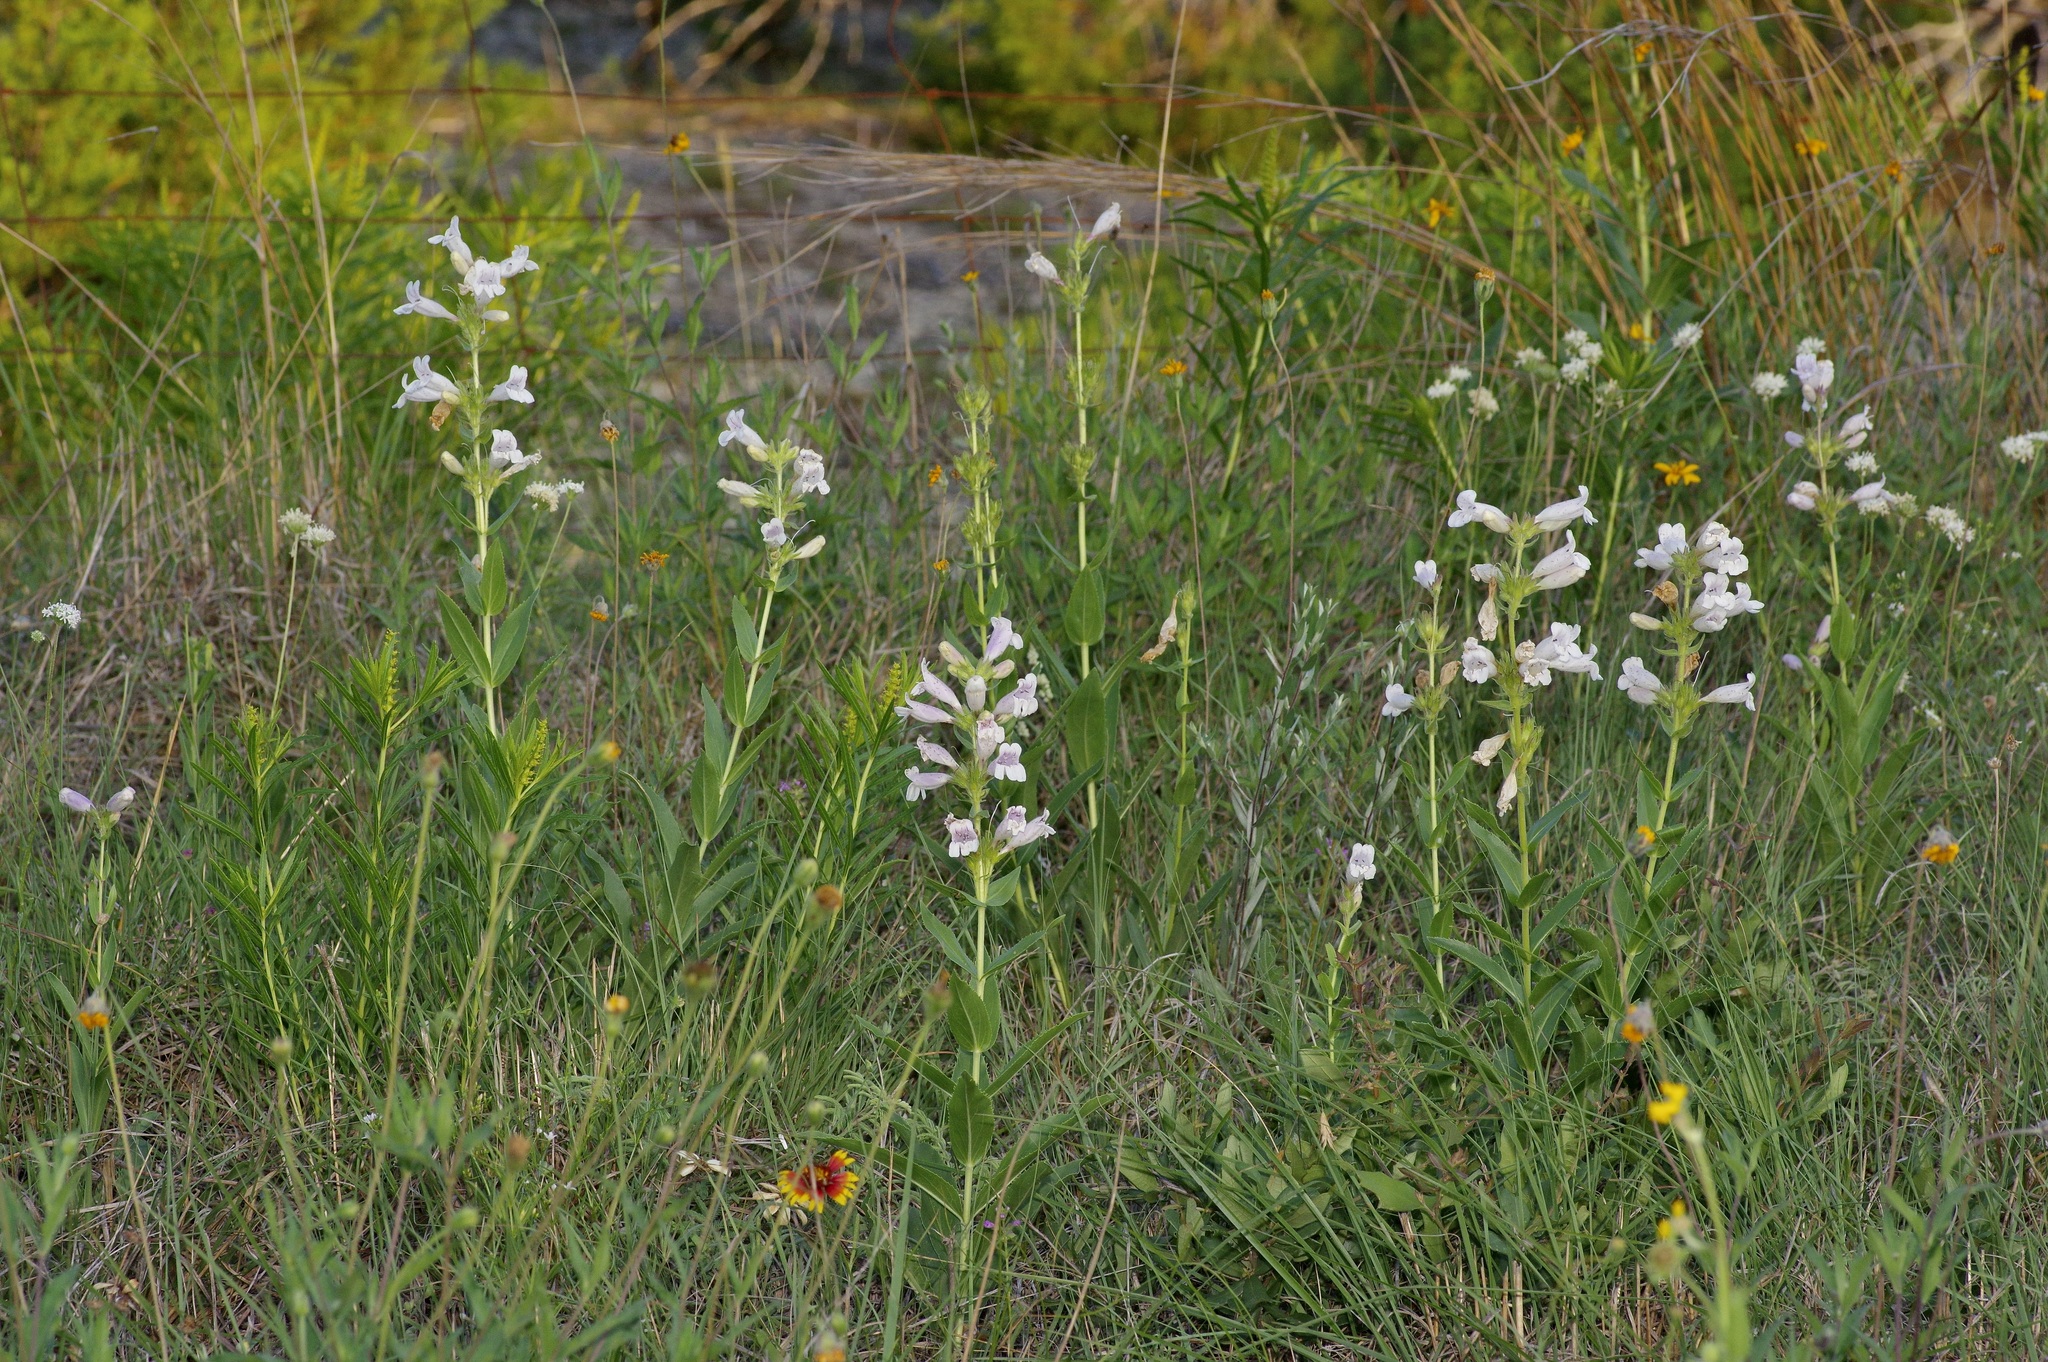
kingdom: Plantae
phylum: Tracheophyta
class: Magnoliopsida
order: Lamiales
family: Plantaginaceae
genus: Penstemon
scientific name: Penstemon cobaea
